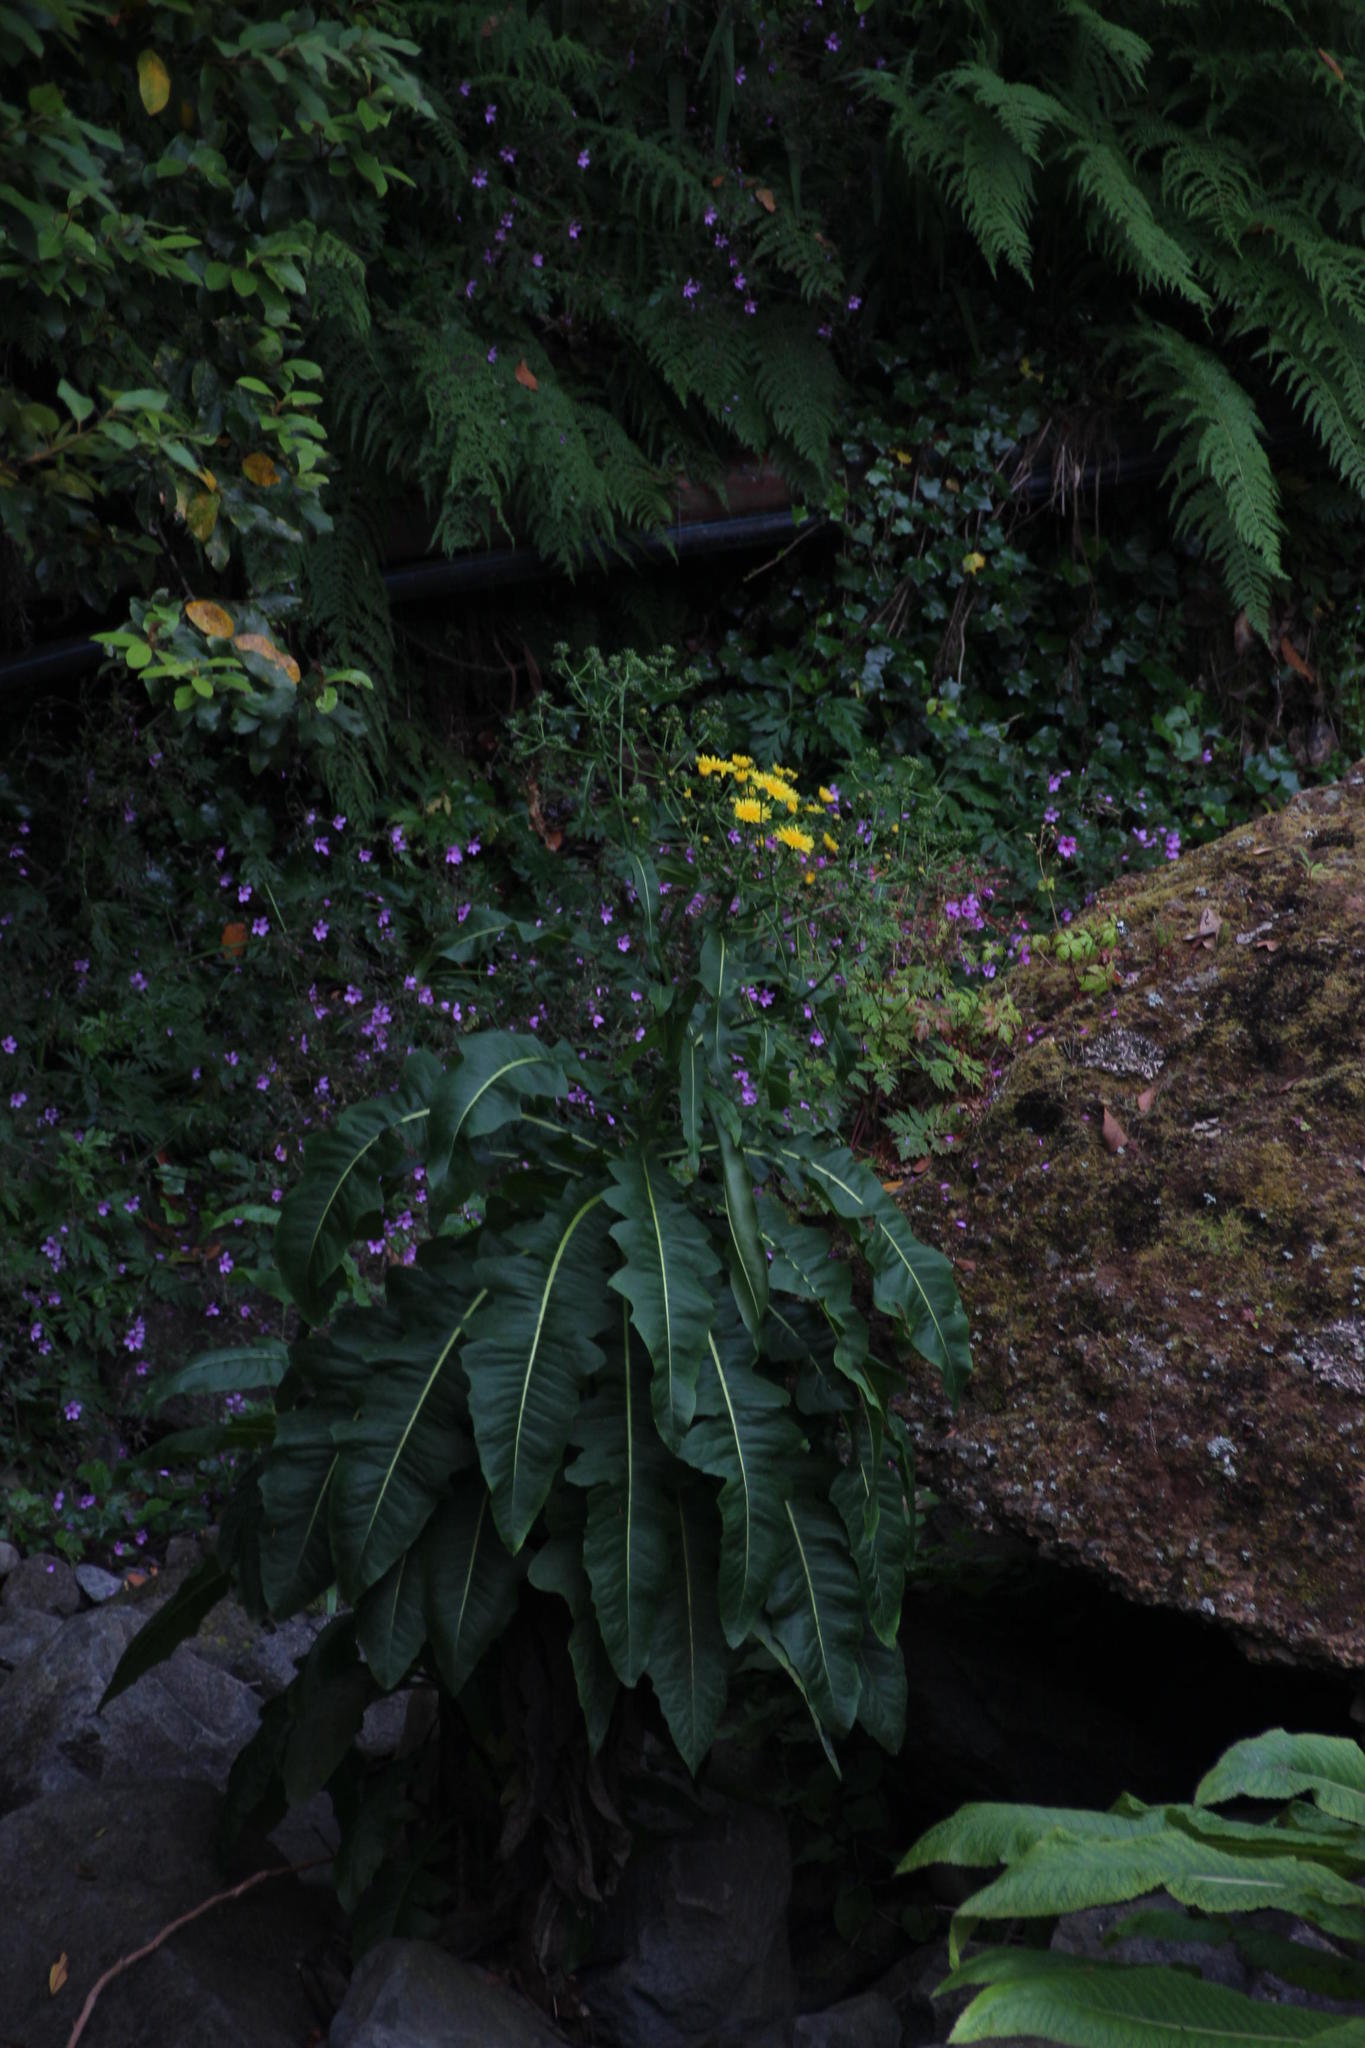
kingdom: Plantae
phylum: Tracheophyta
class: Magnoliopsida
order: Asterales
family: Asteraceae
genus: Sonchus
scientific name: Sonchus fruticosus
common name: Shrubby sow-thistle
